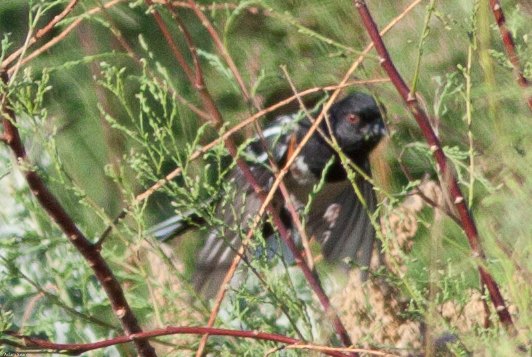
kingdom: Animalia
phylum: Chordata
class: Aves
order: Passeriformes
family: Passerellidae
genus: Pipilo
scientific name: Pipilo maculatus
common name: Spotted towhee
